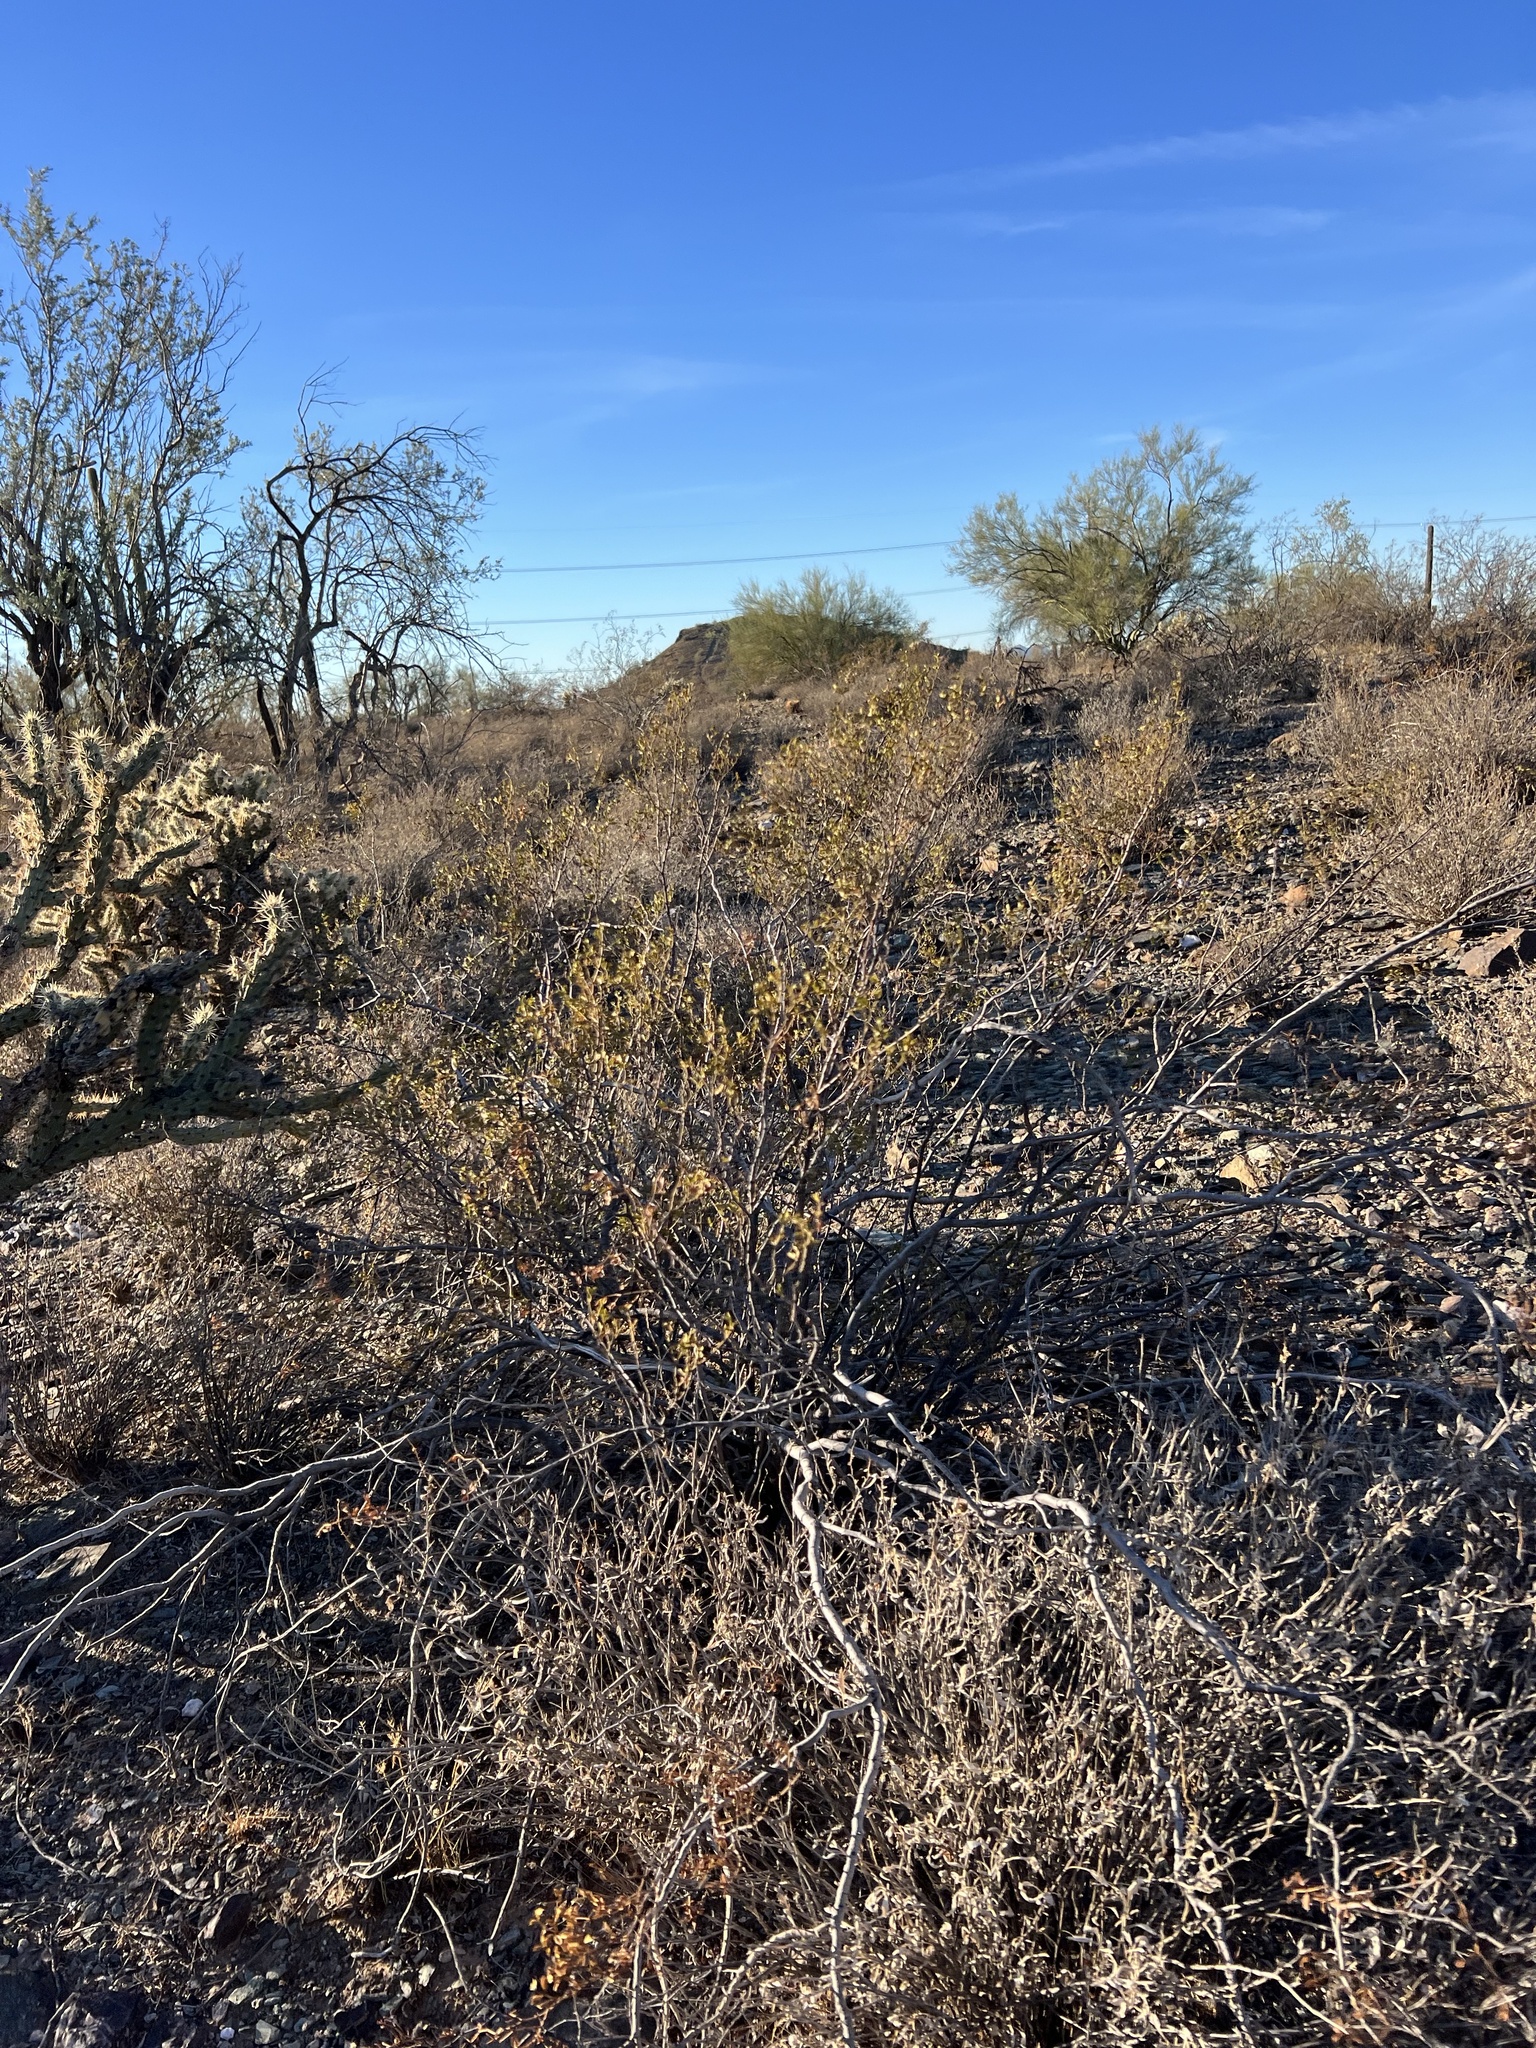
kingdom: Plantae
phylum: Tracheophyta
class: Magnoliopsida
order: Zygophyllales
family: Zygophyllaceae
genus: Larrea
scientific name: Larrea tridentata
